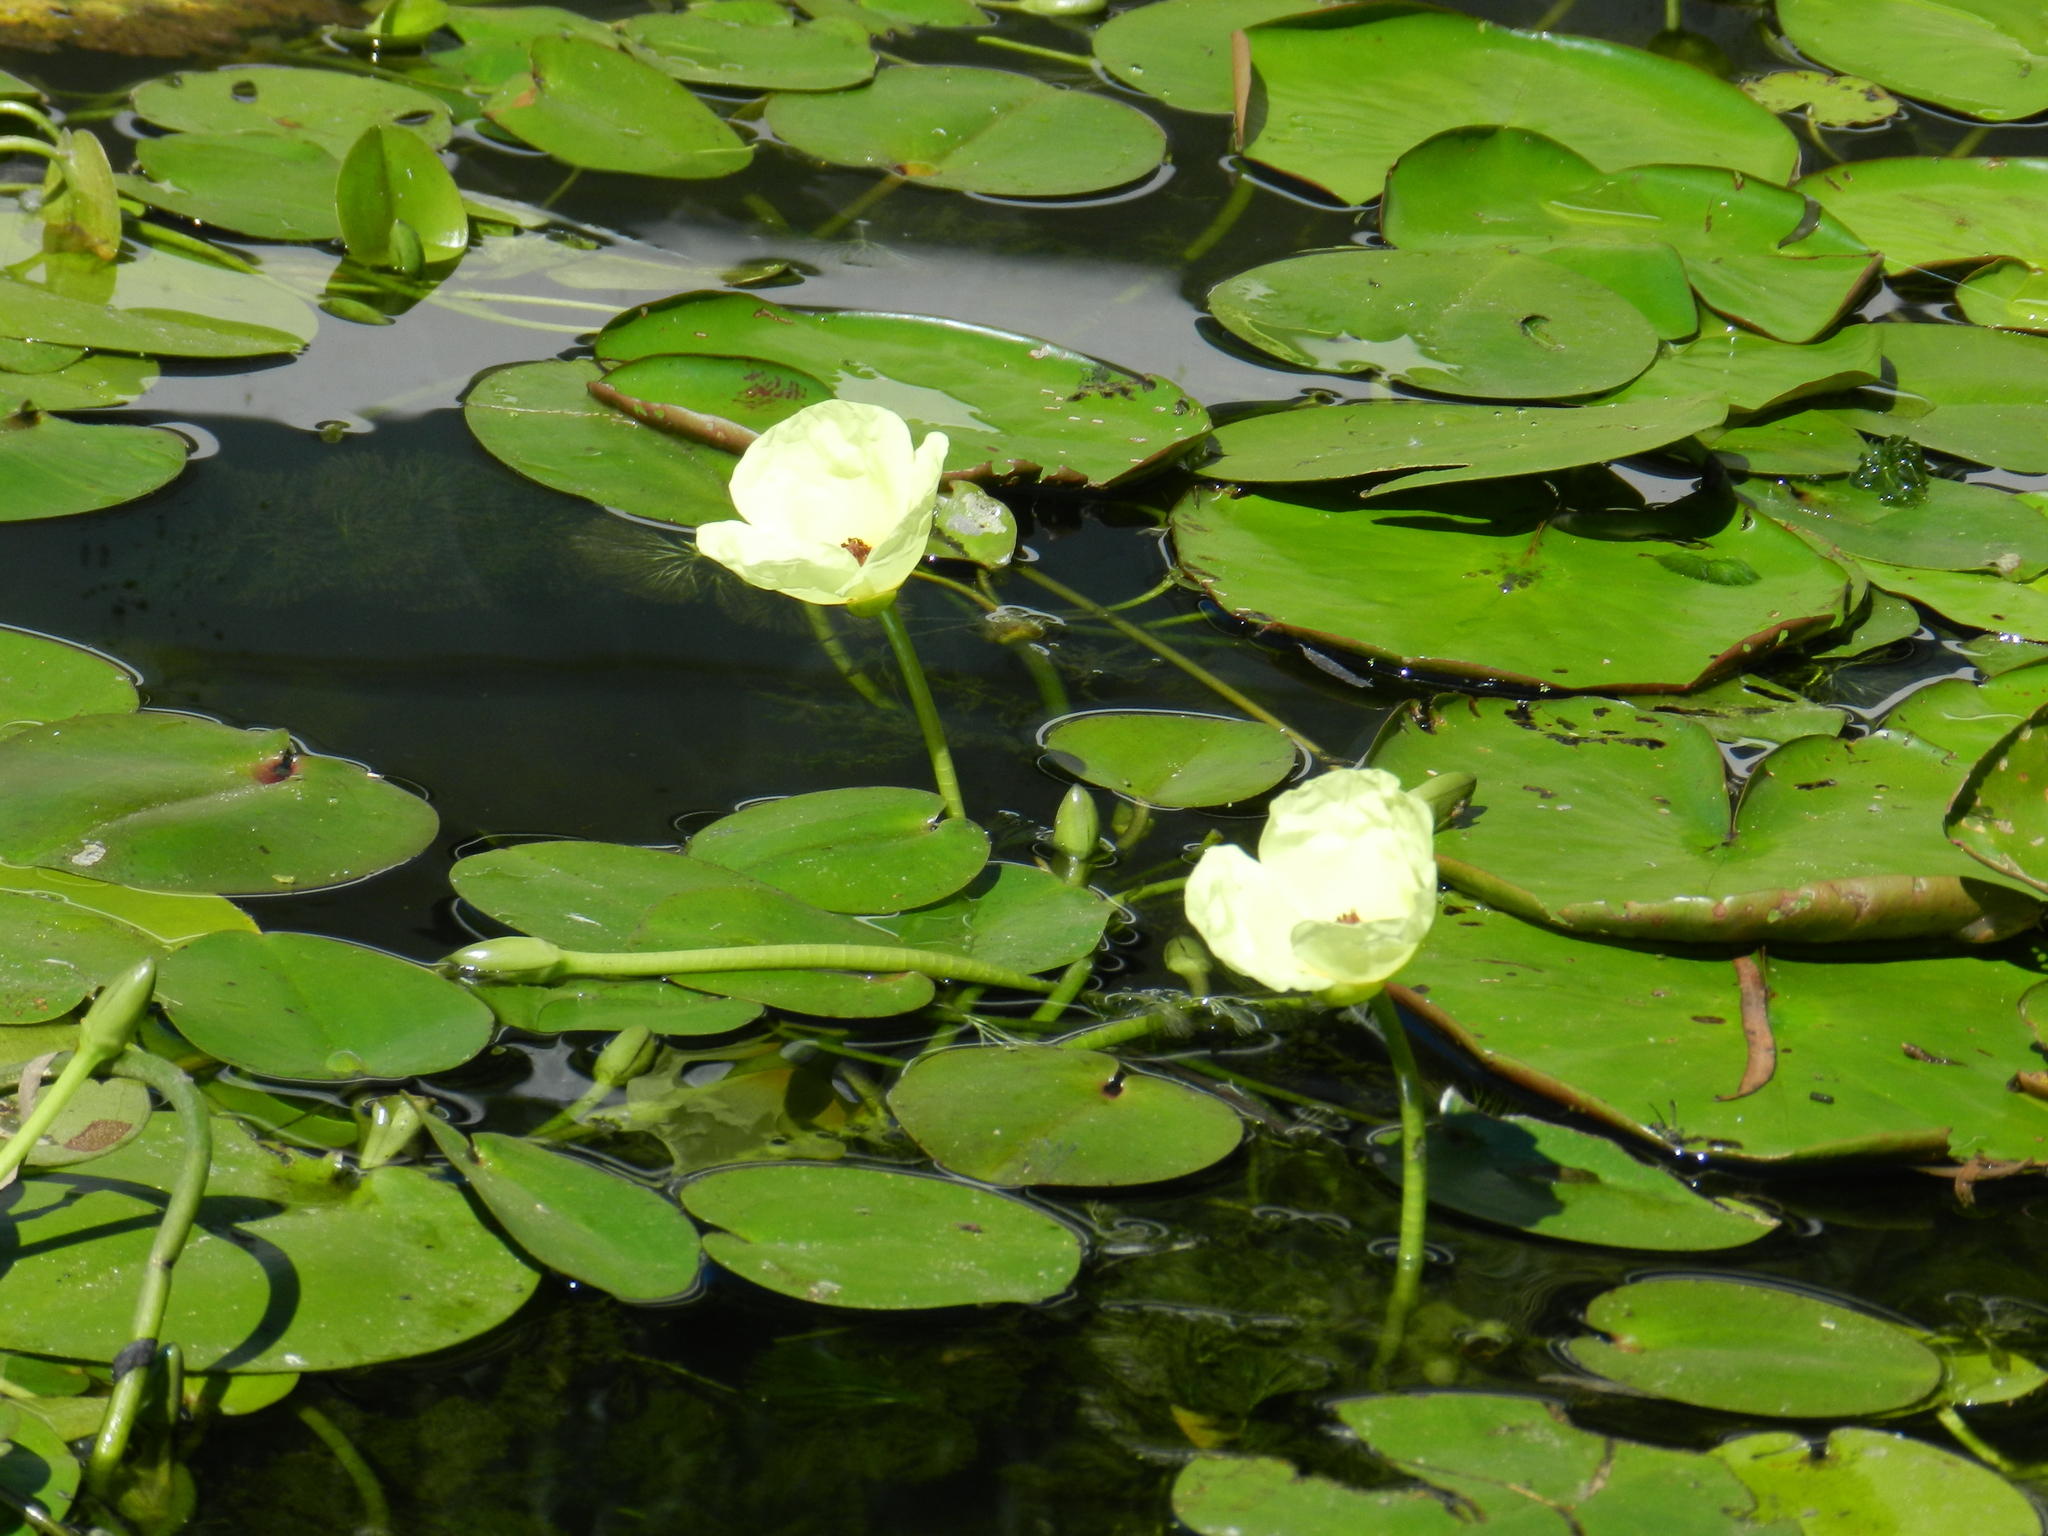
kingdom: Plantae
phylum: Tracheophyta
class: Liliopsida
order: Alismatales
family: Alismataceae
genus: Hydrocleys
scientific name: Hydrocleys nymphoides
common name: Water-poppy
